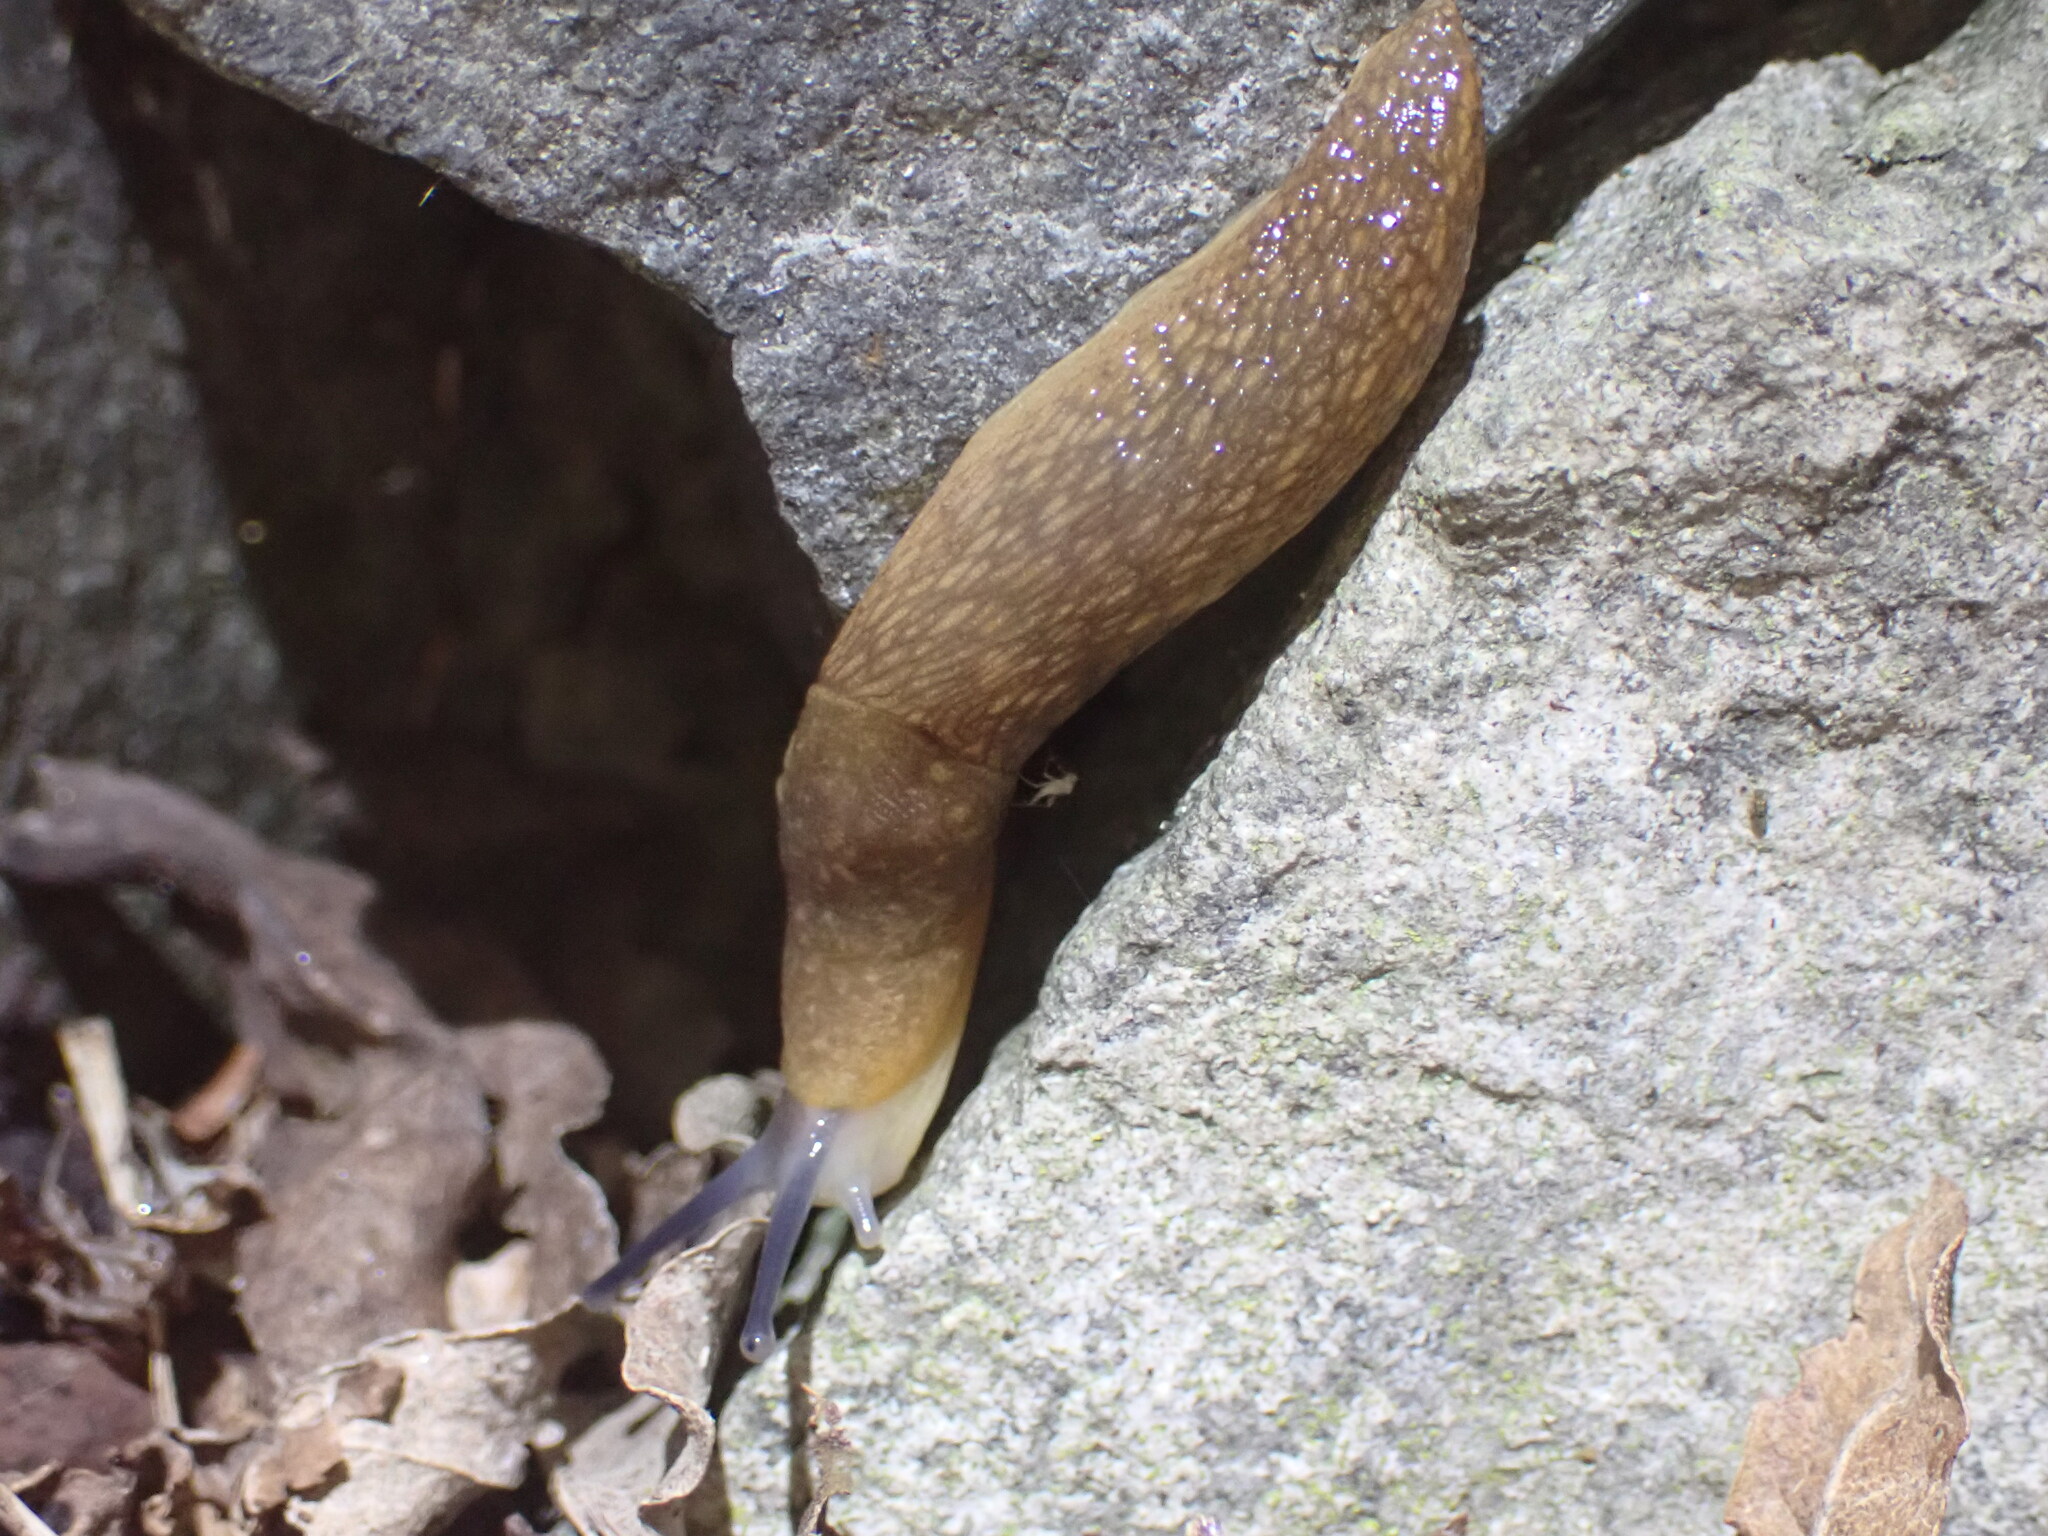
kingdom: Animalia
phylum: Mollusca
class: Gastropoda
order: Stylommatophora
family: Limacidae
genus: Limacus
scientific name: Limacus flavus
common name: Yellow gardenslug
